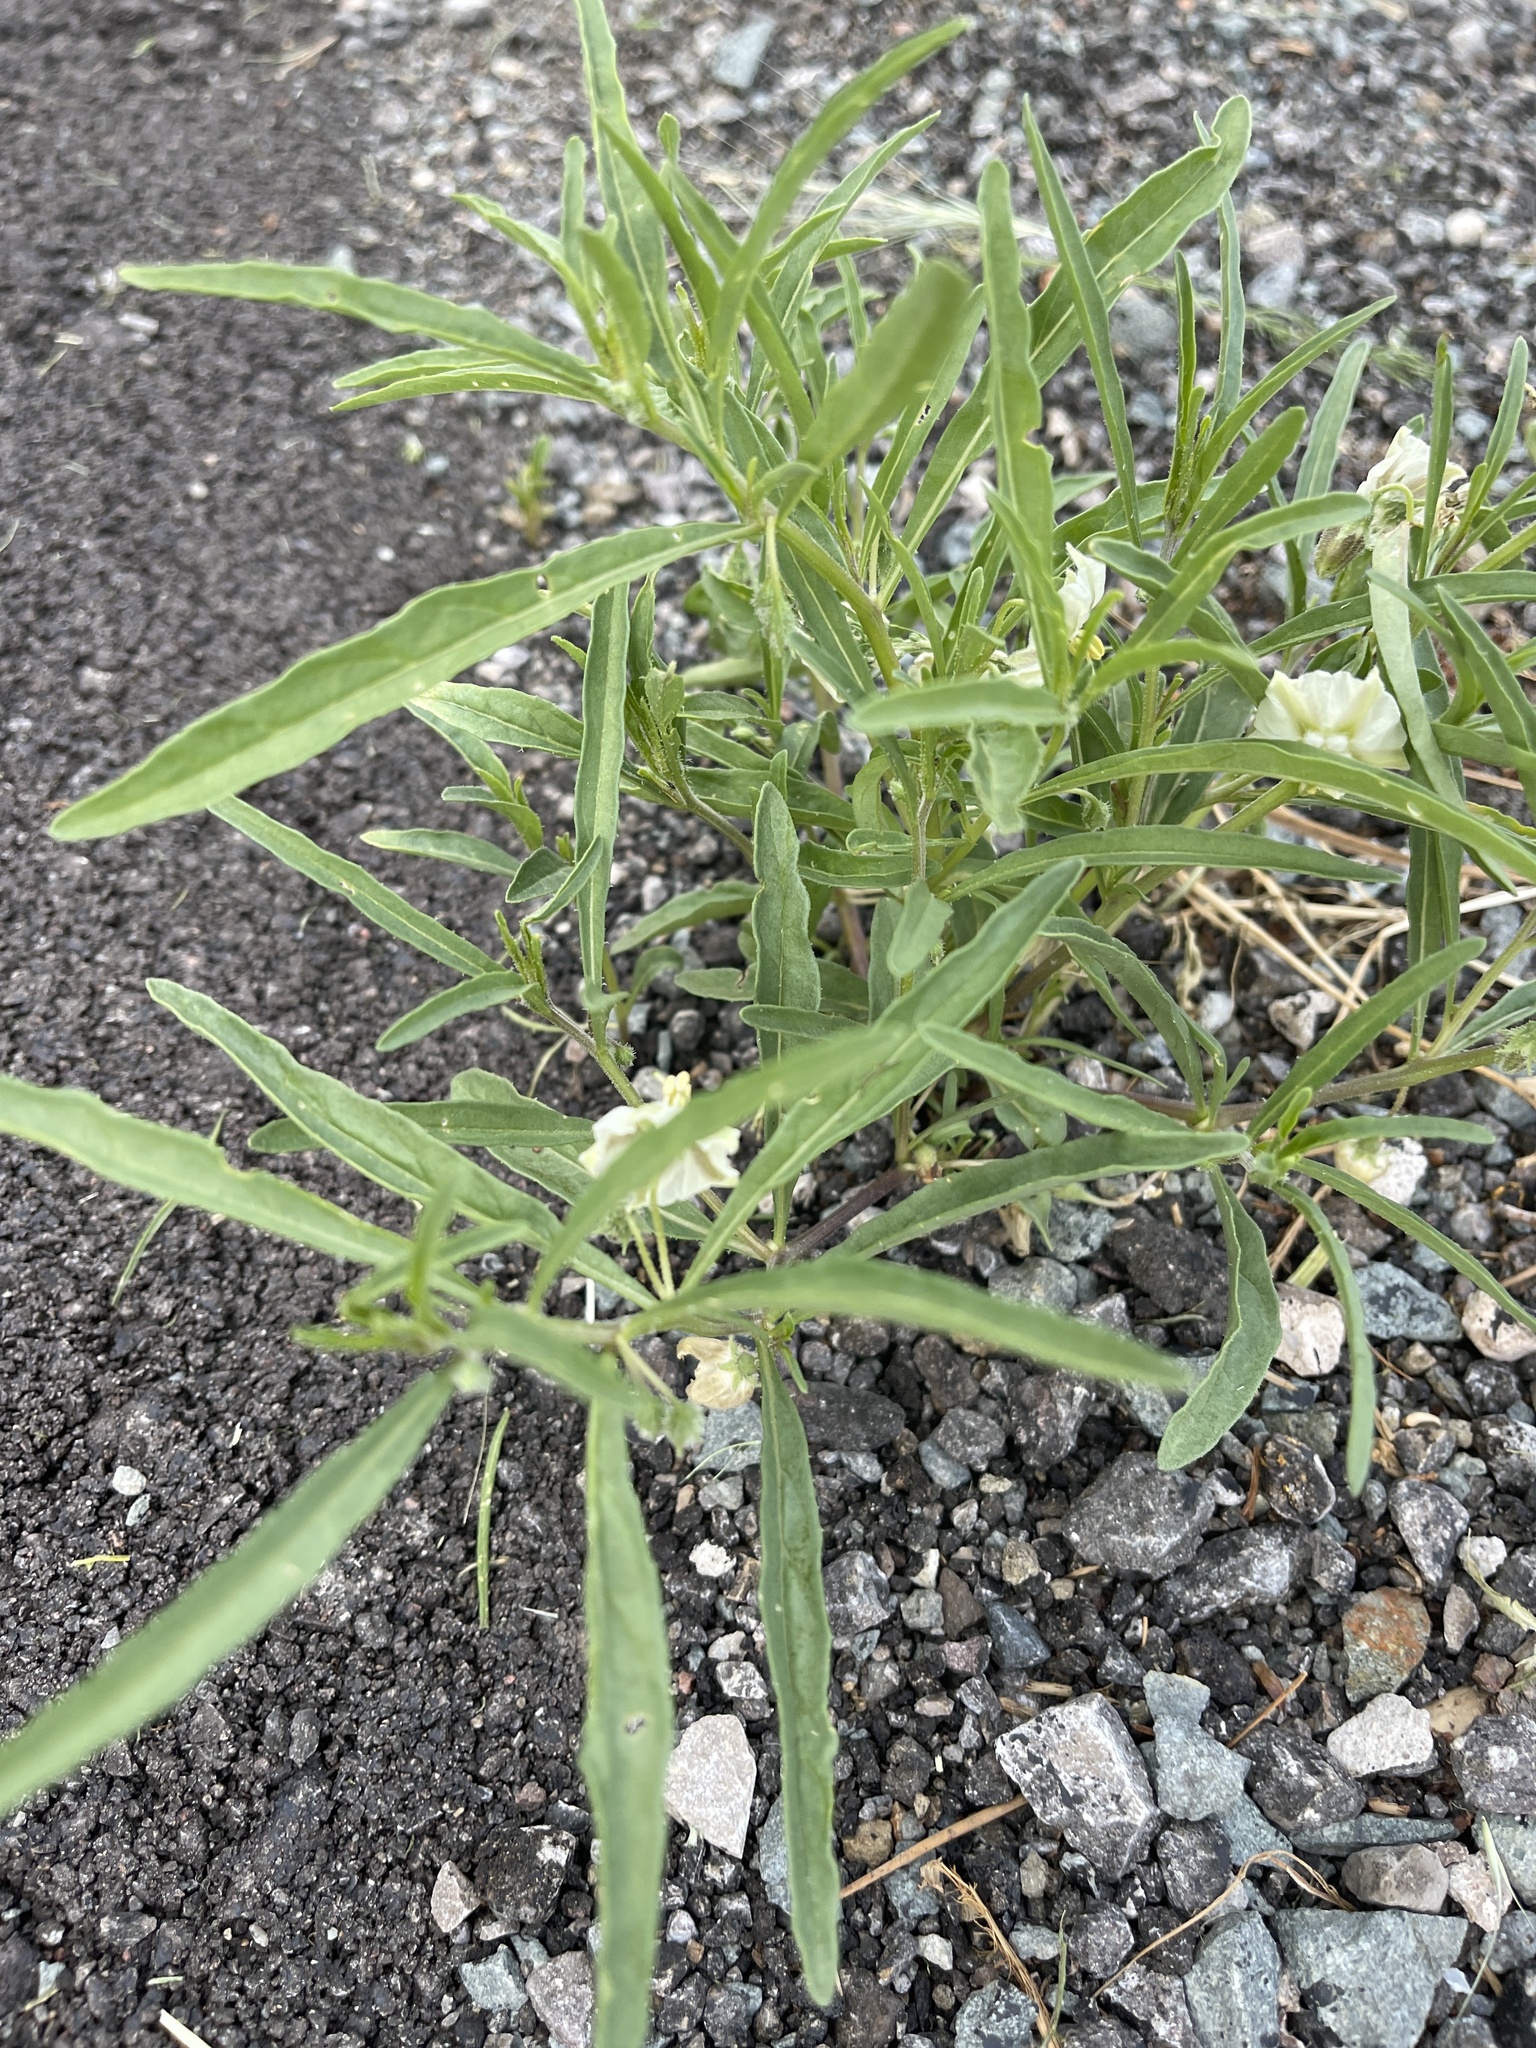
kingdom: Plantae
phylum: Tracheophyta
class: Magnoliopsida
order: Solanales
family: Solanaceae
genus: Chamaesaracha
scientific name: Chamaesaracha coronopus
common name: Smooth chamaesaracha
